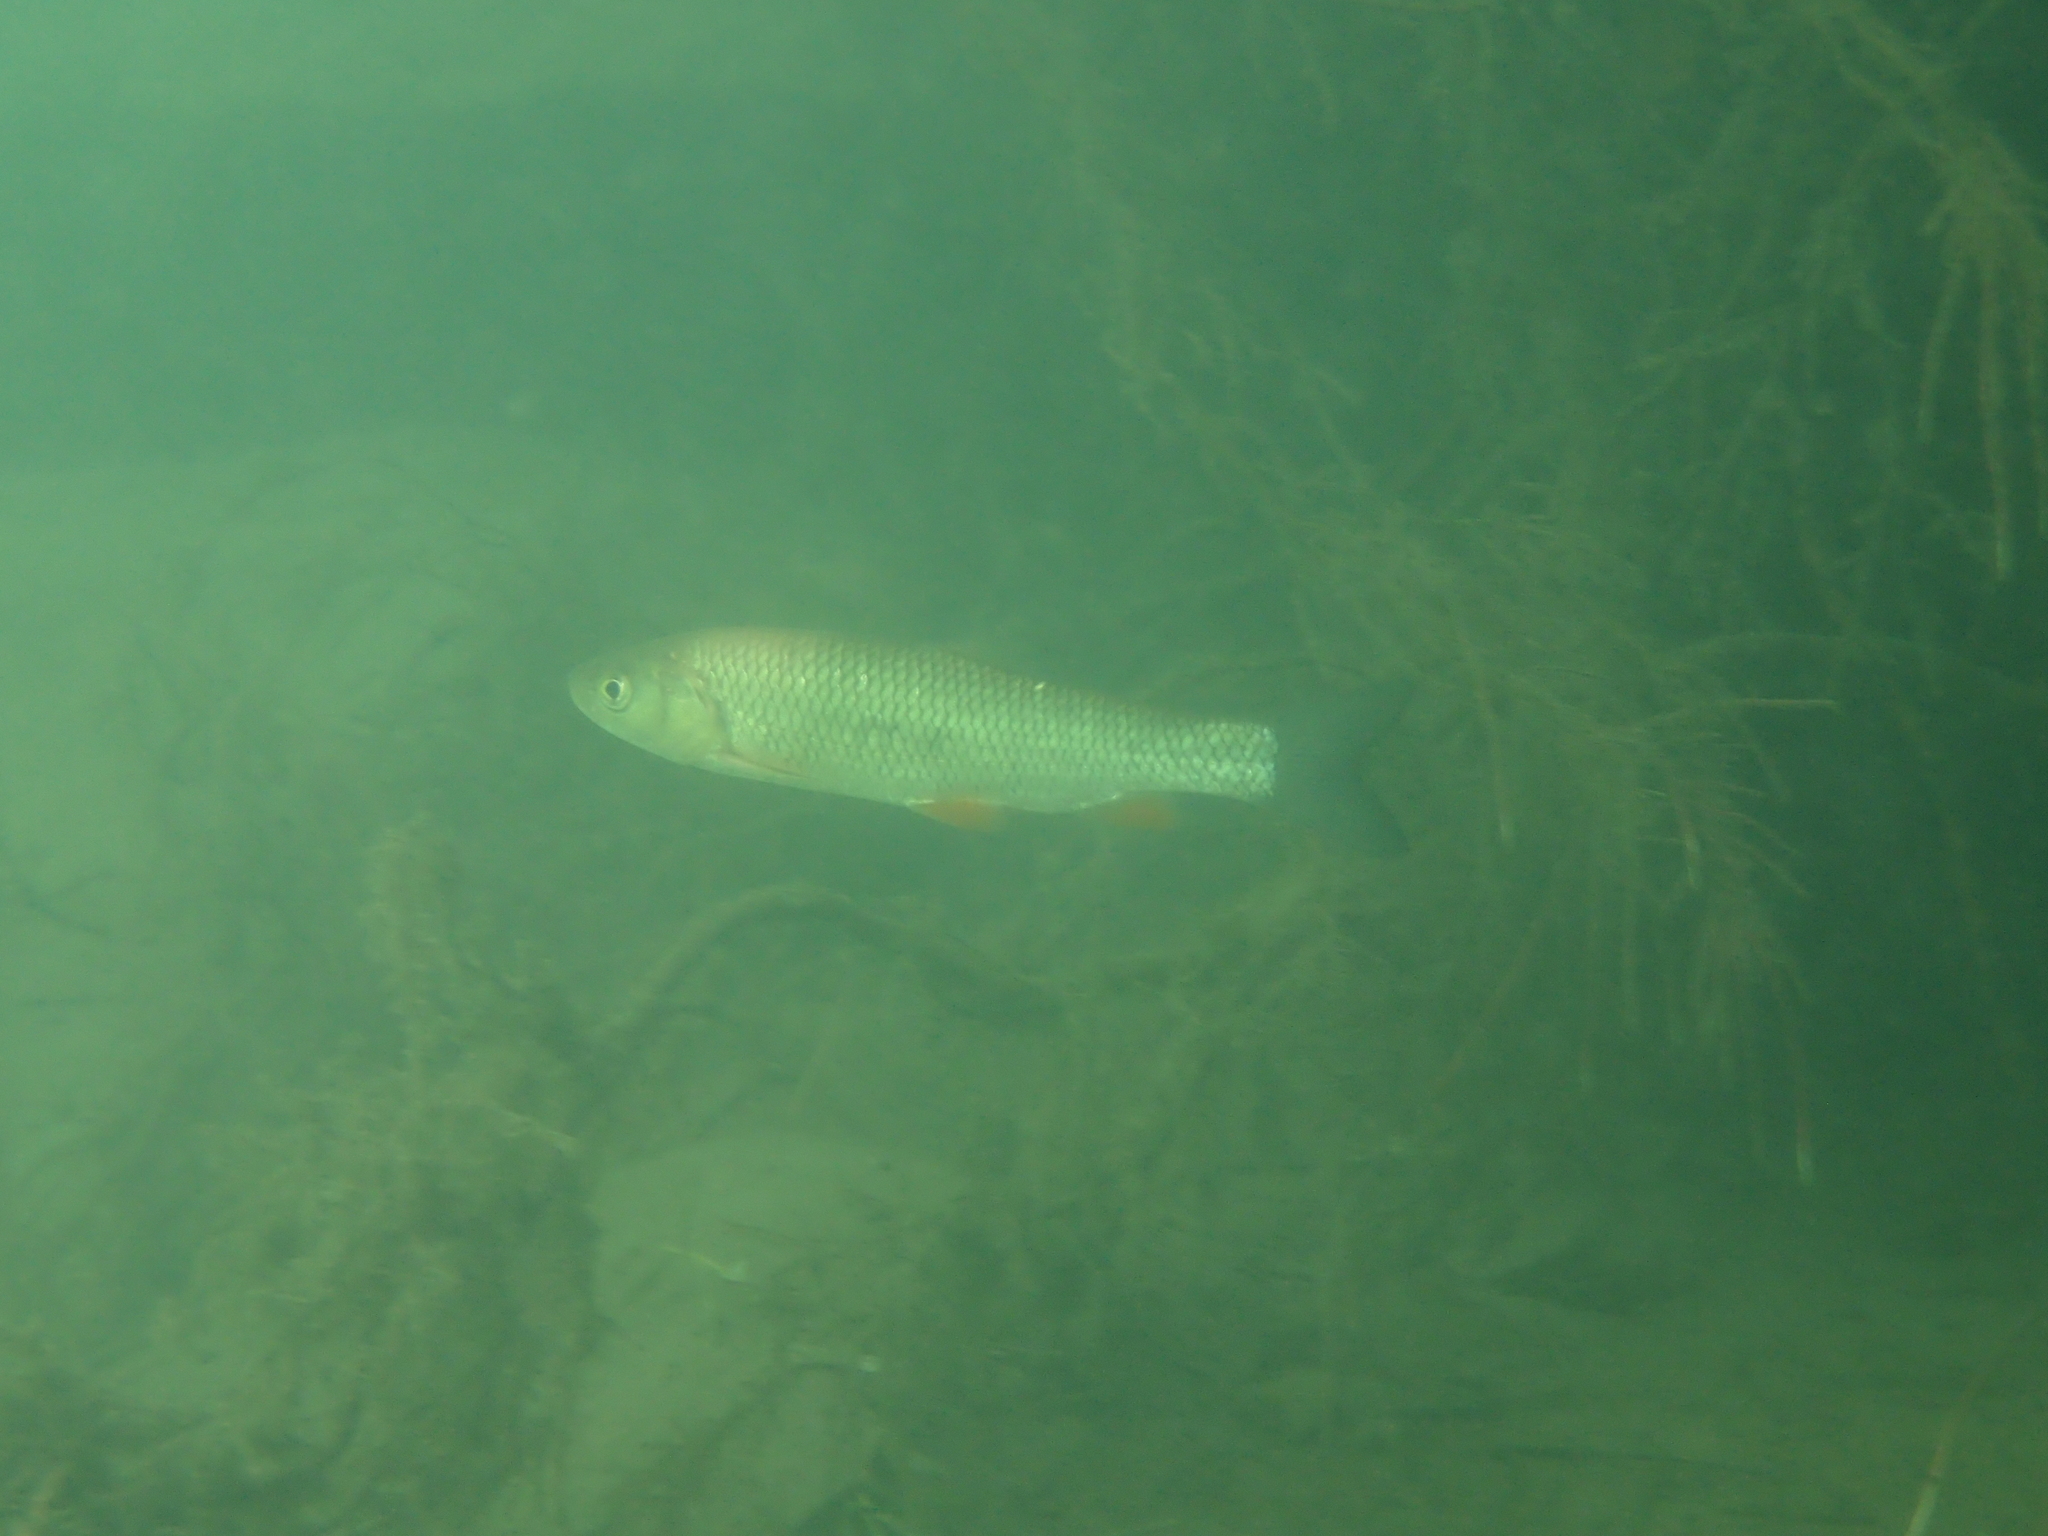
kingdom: Animalia
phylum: Chordata
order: Cypriniformes
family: Cyprinidae
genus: Squalius
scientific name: Squalius cephalus
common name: Chub
